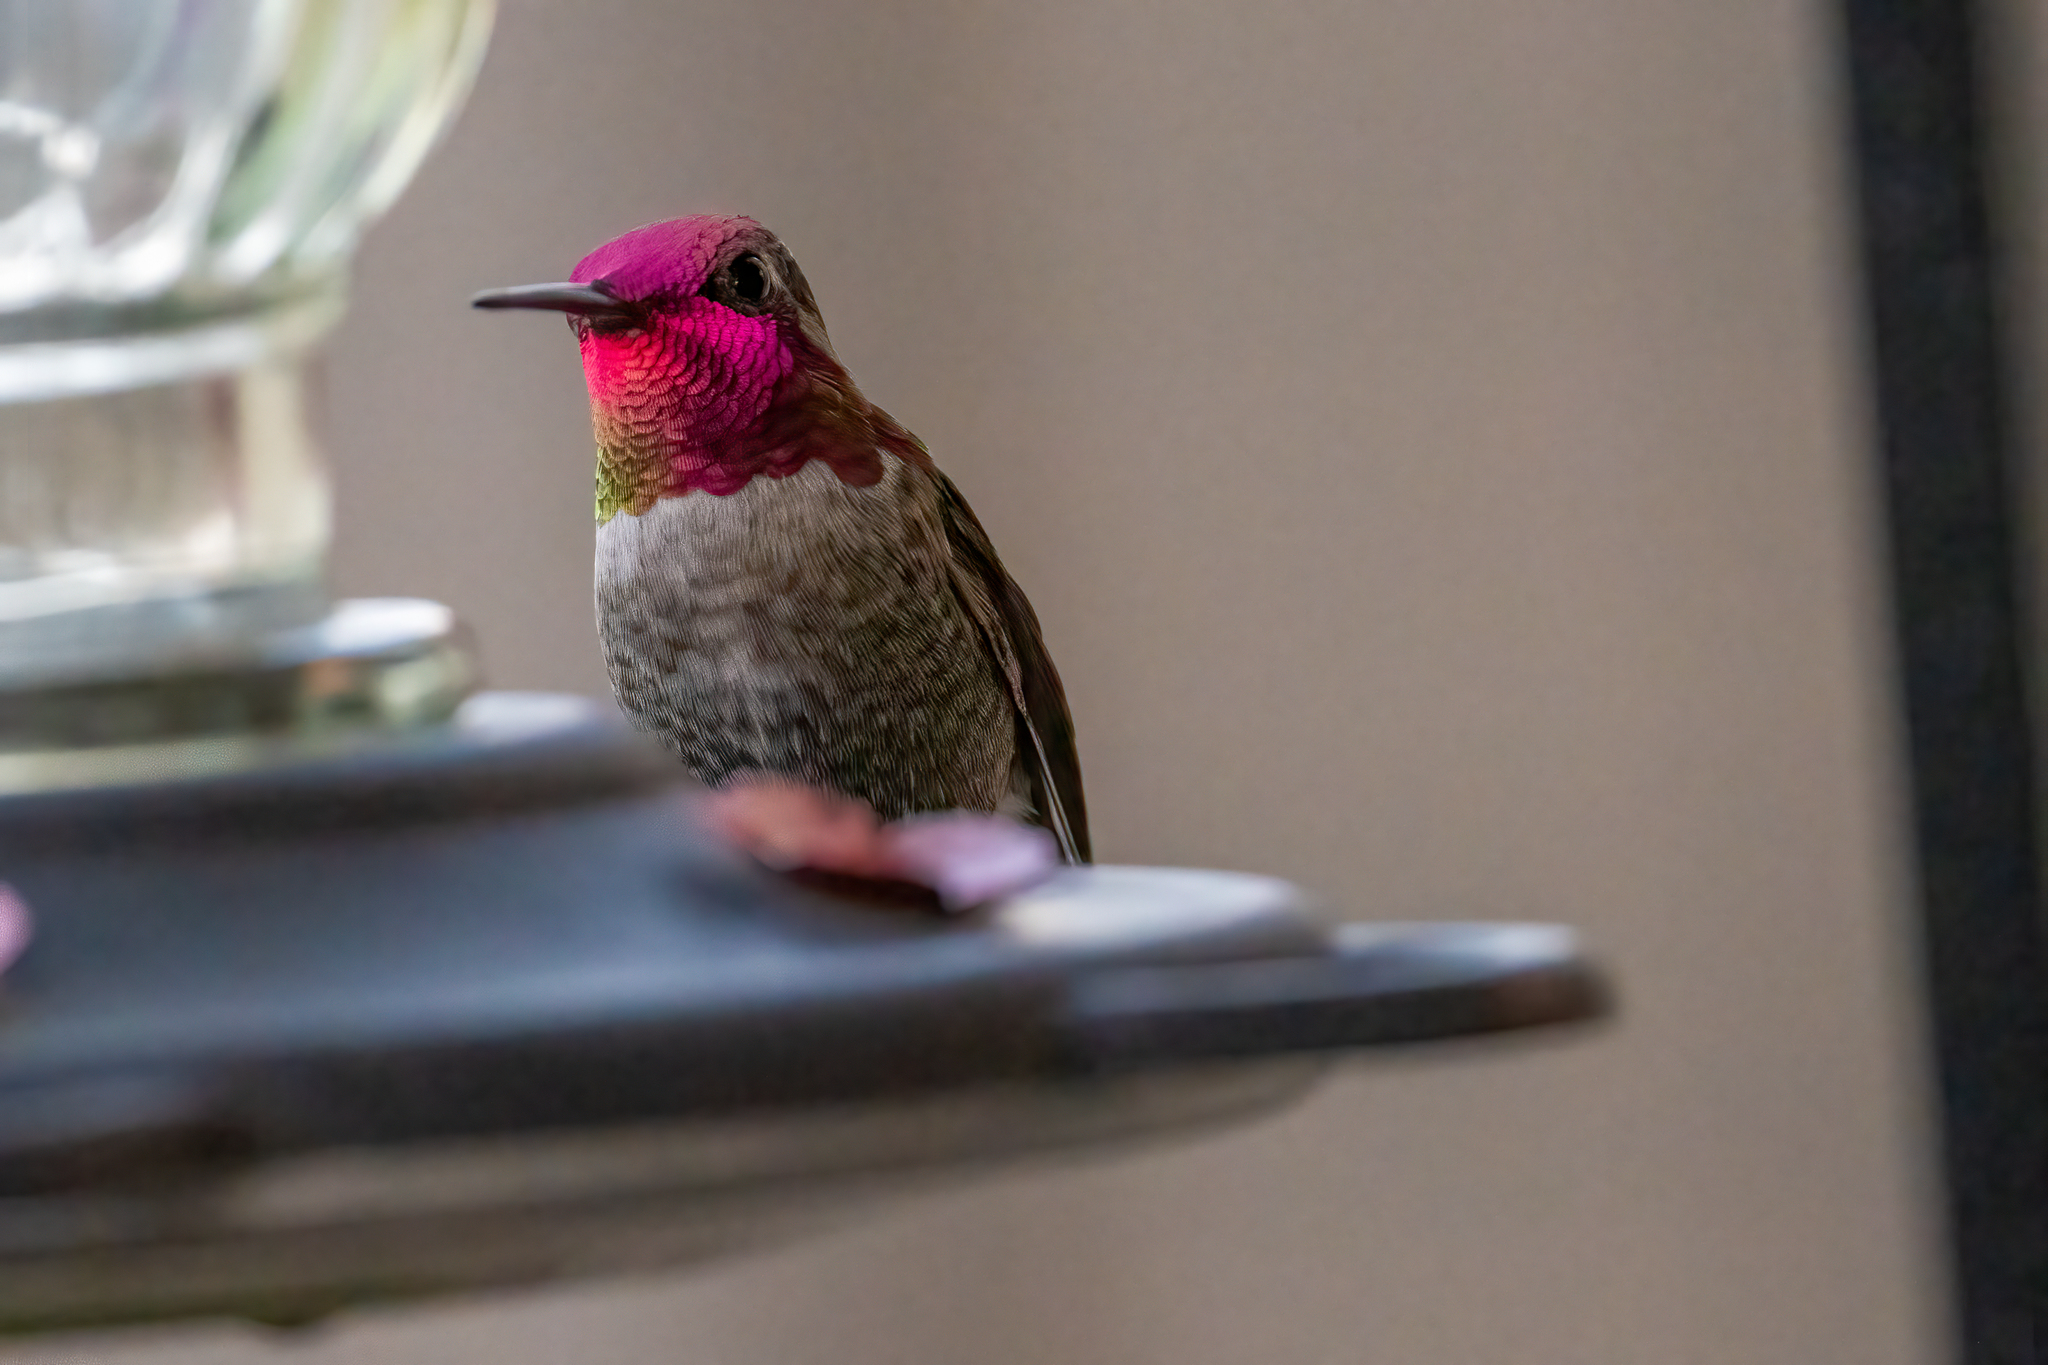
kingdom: Animalia
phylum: Chordata
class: Aves
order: Apodiformes
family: Trochilidae
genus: Calypte
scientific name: Calypte anna
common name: Anna's hummingbird
